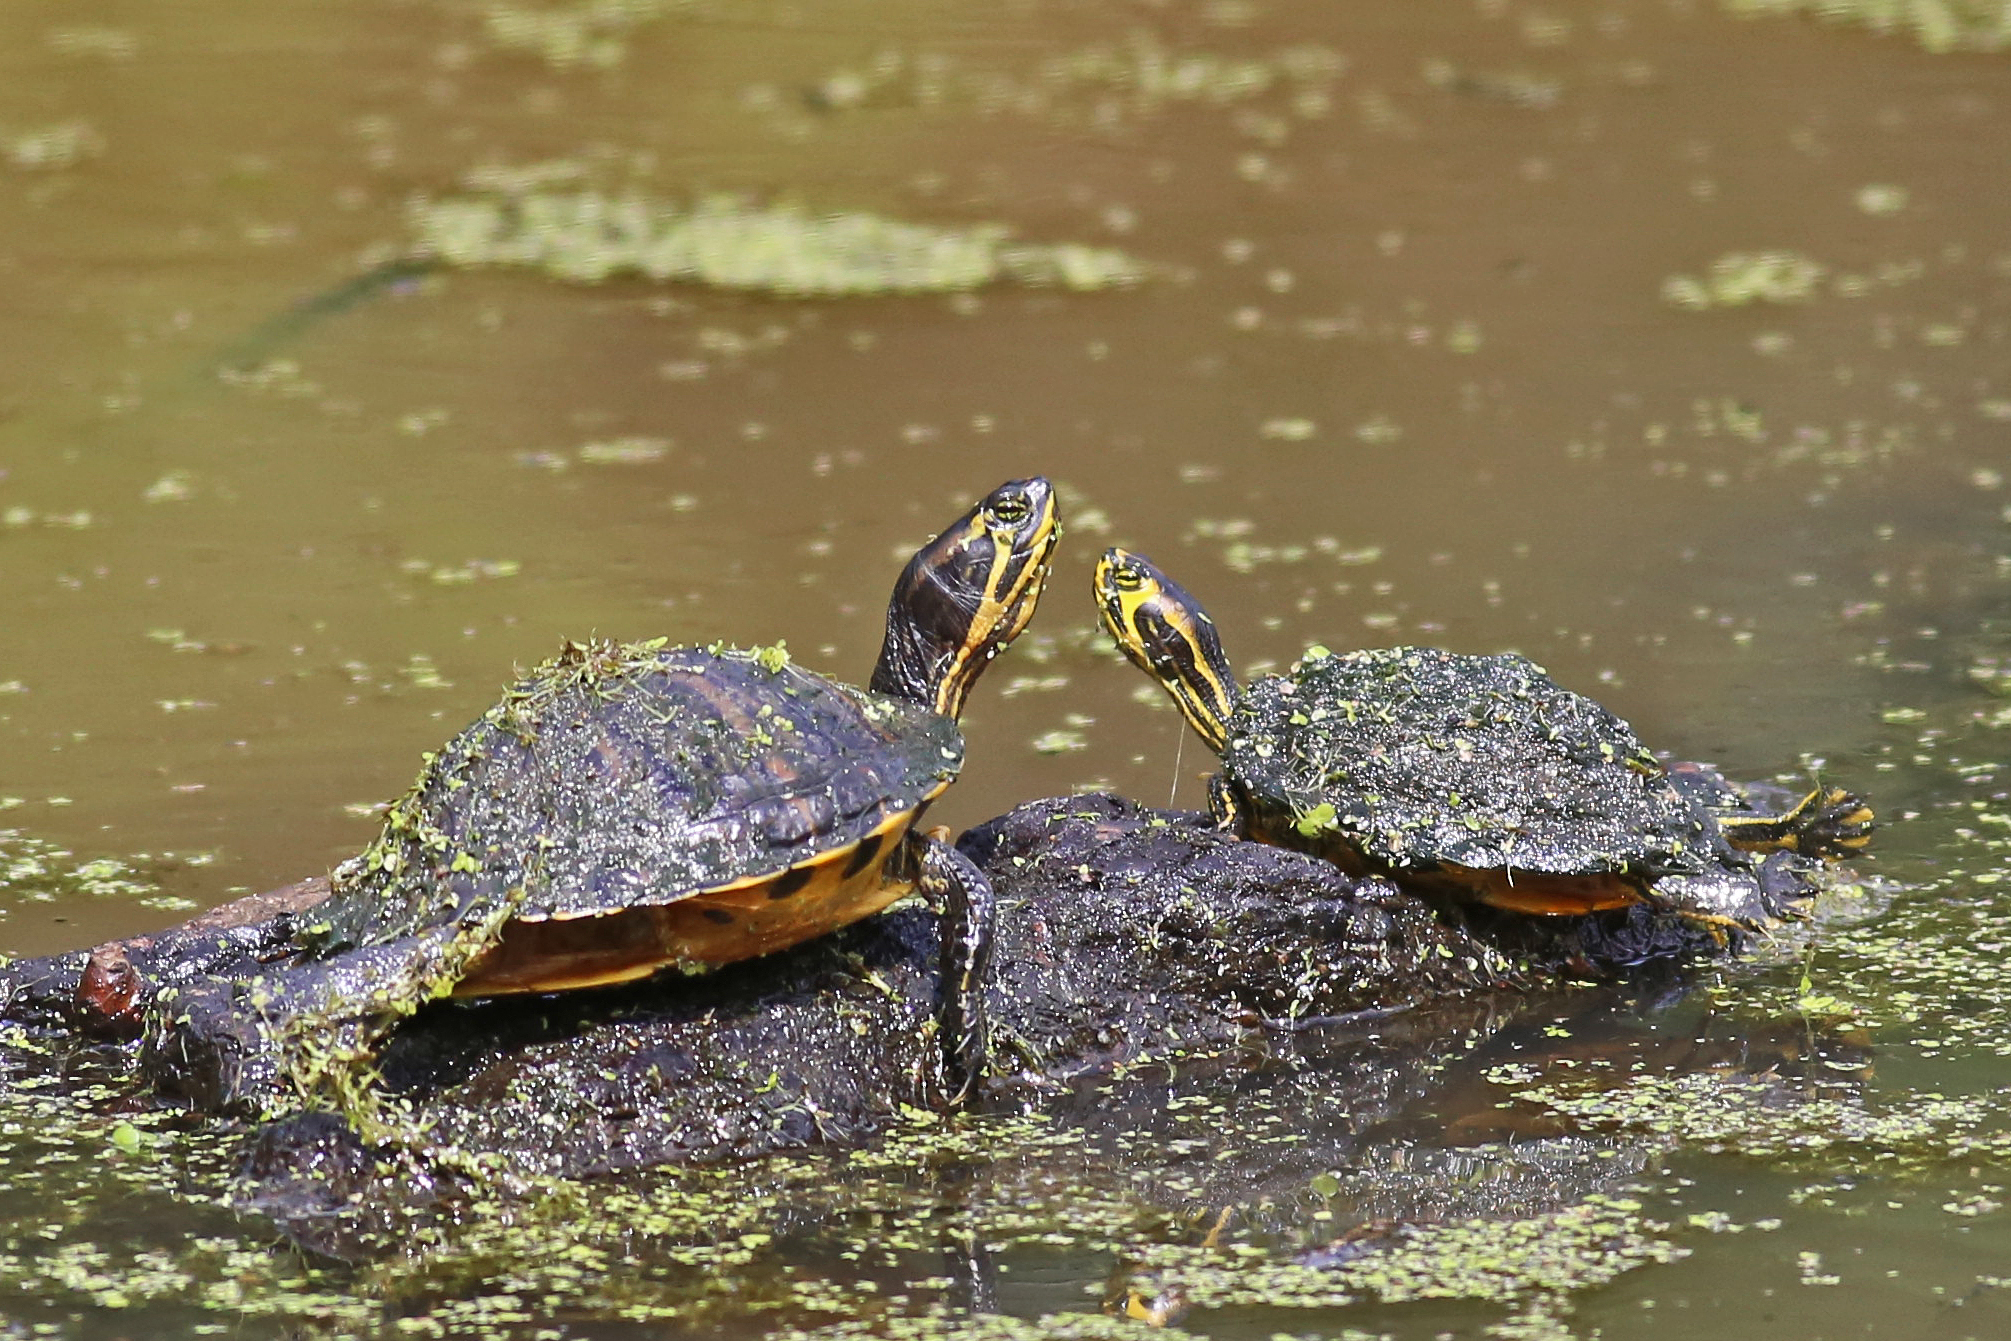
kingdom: Animalia
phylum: Chordata
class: Testudines
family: Emydidae
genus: Trachemys
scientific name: Trachemys scripta
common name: Slider
